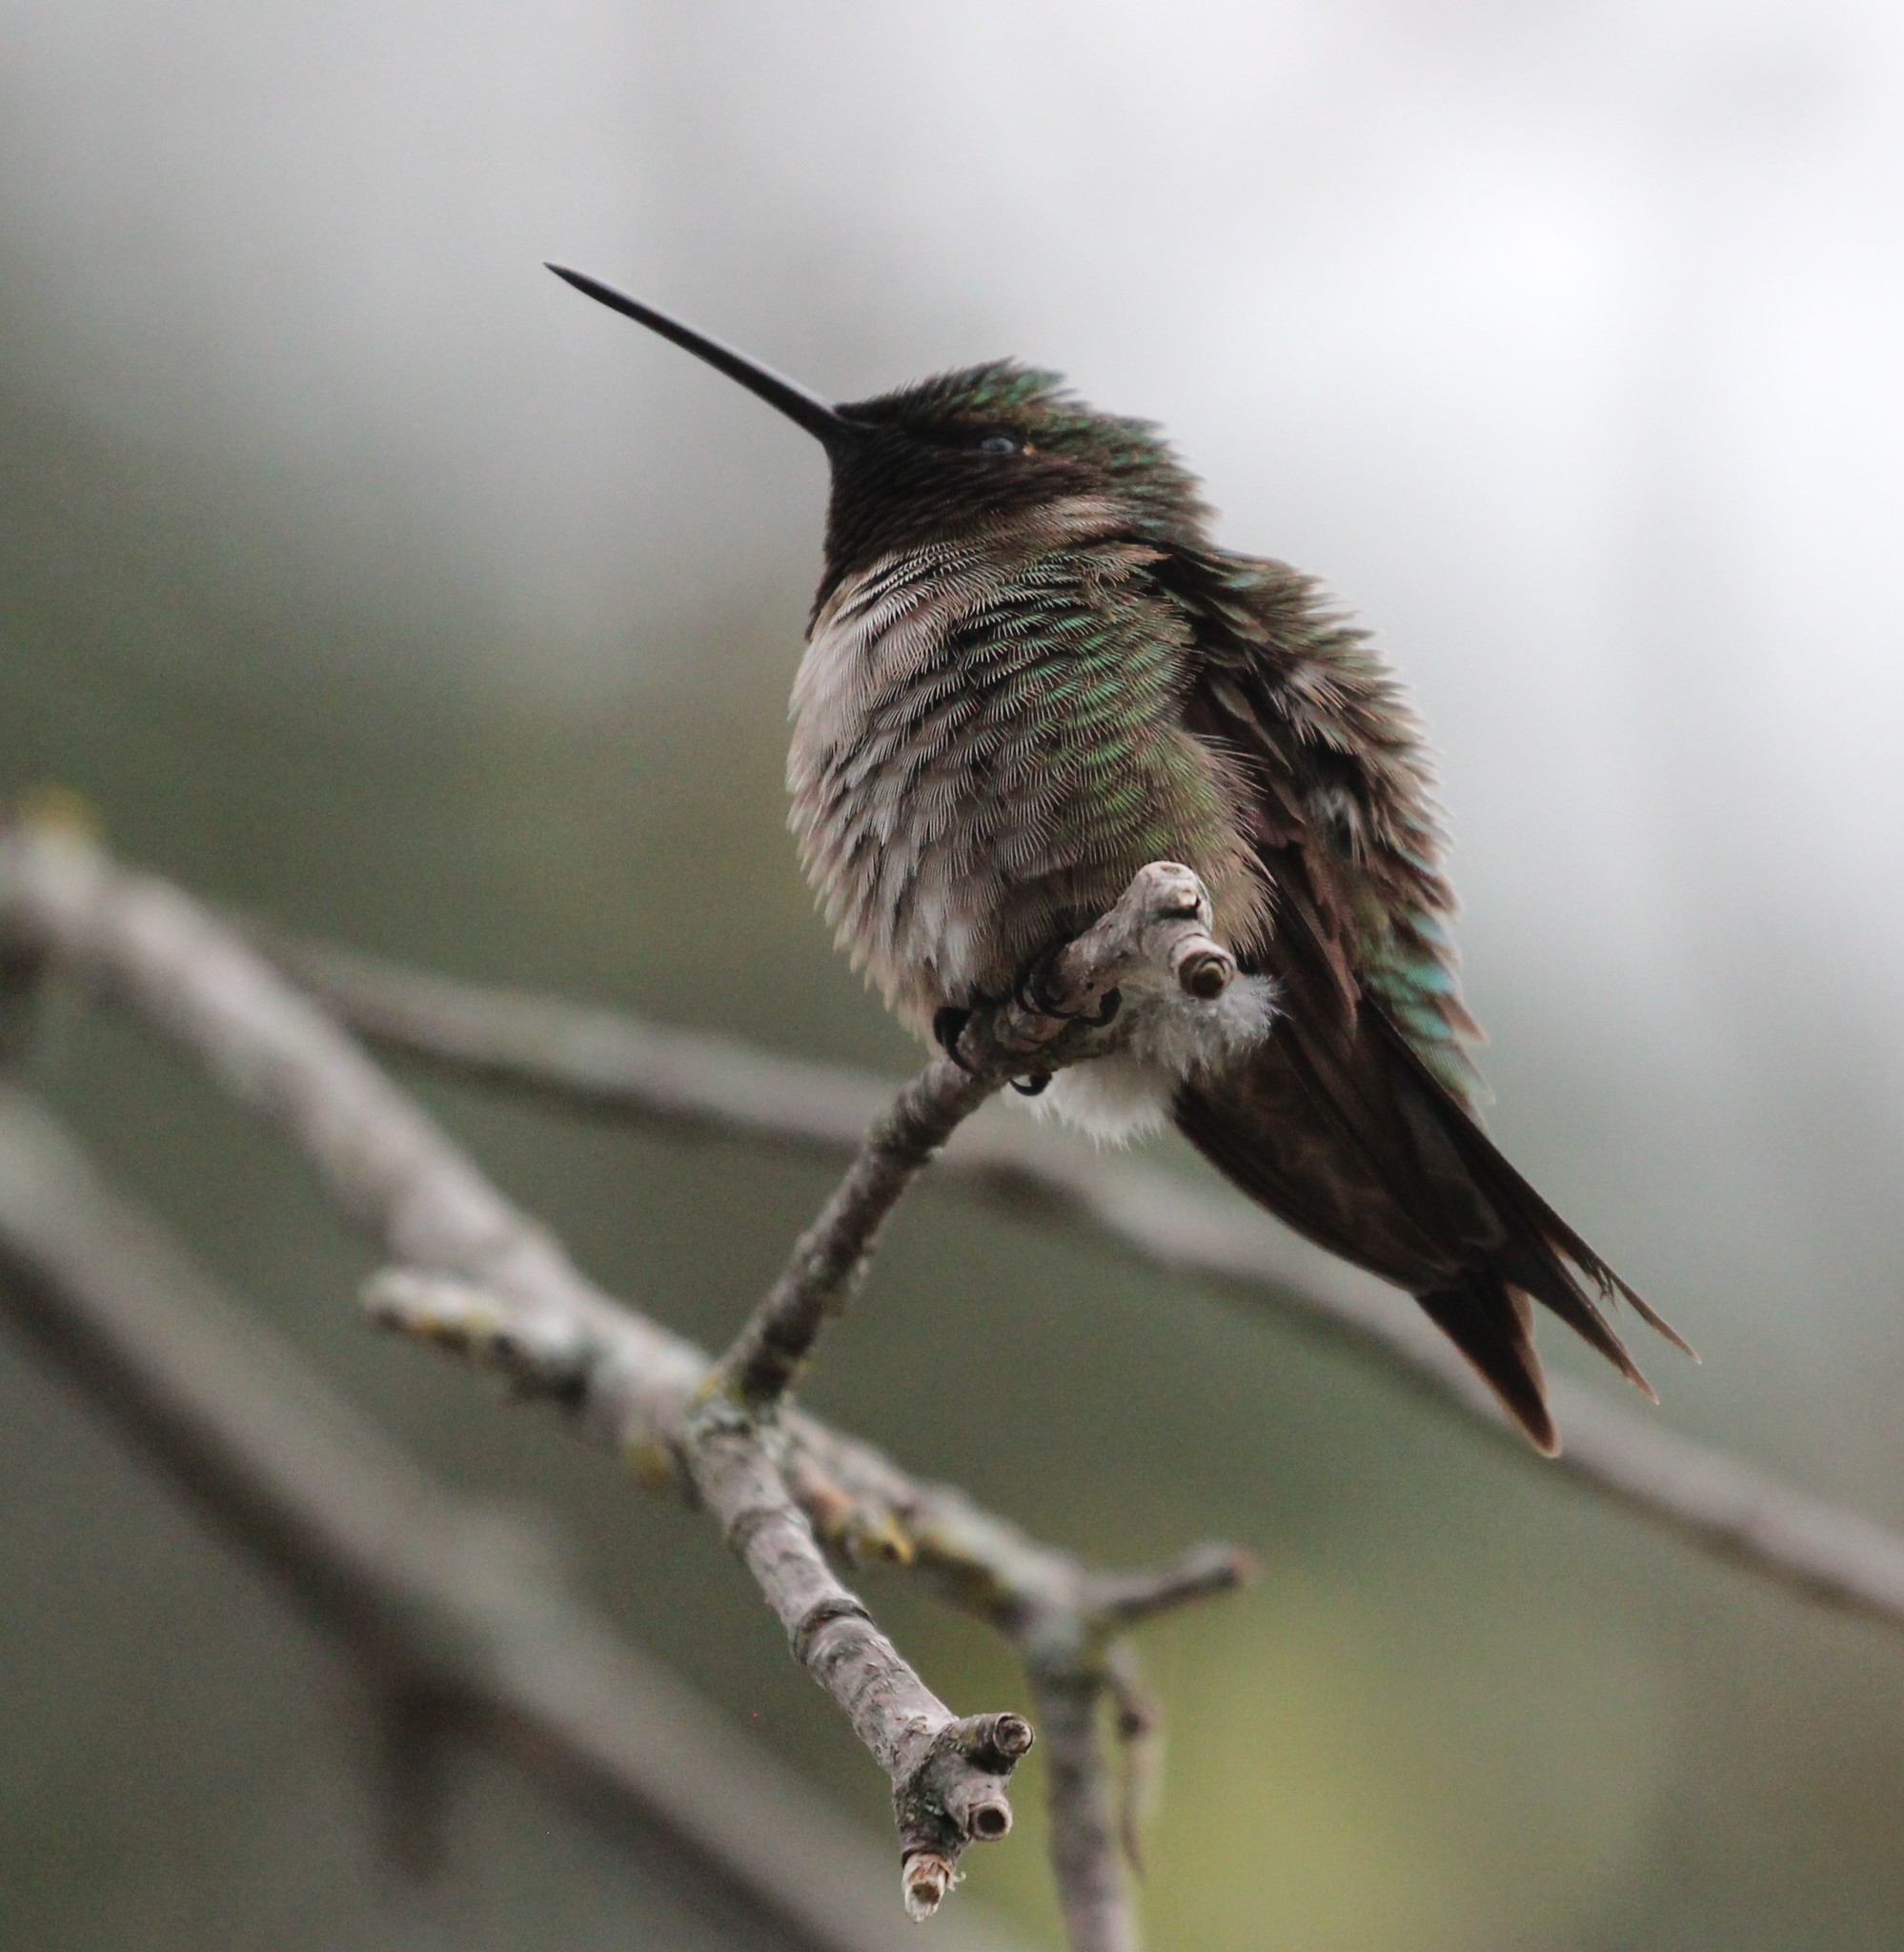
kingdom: Animalia
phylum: Chordata
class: Aves
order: Apodiformes
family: Trochilidae
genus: Archilochus
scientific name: Archilochus colubris
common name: Ruby-throated hummingbird
